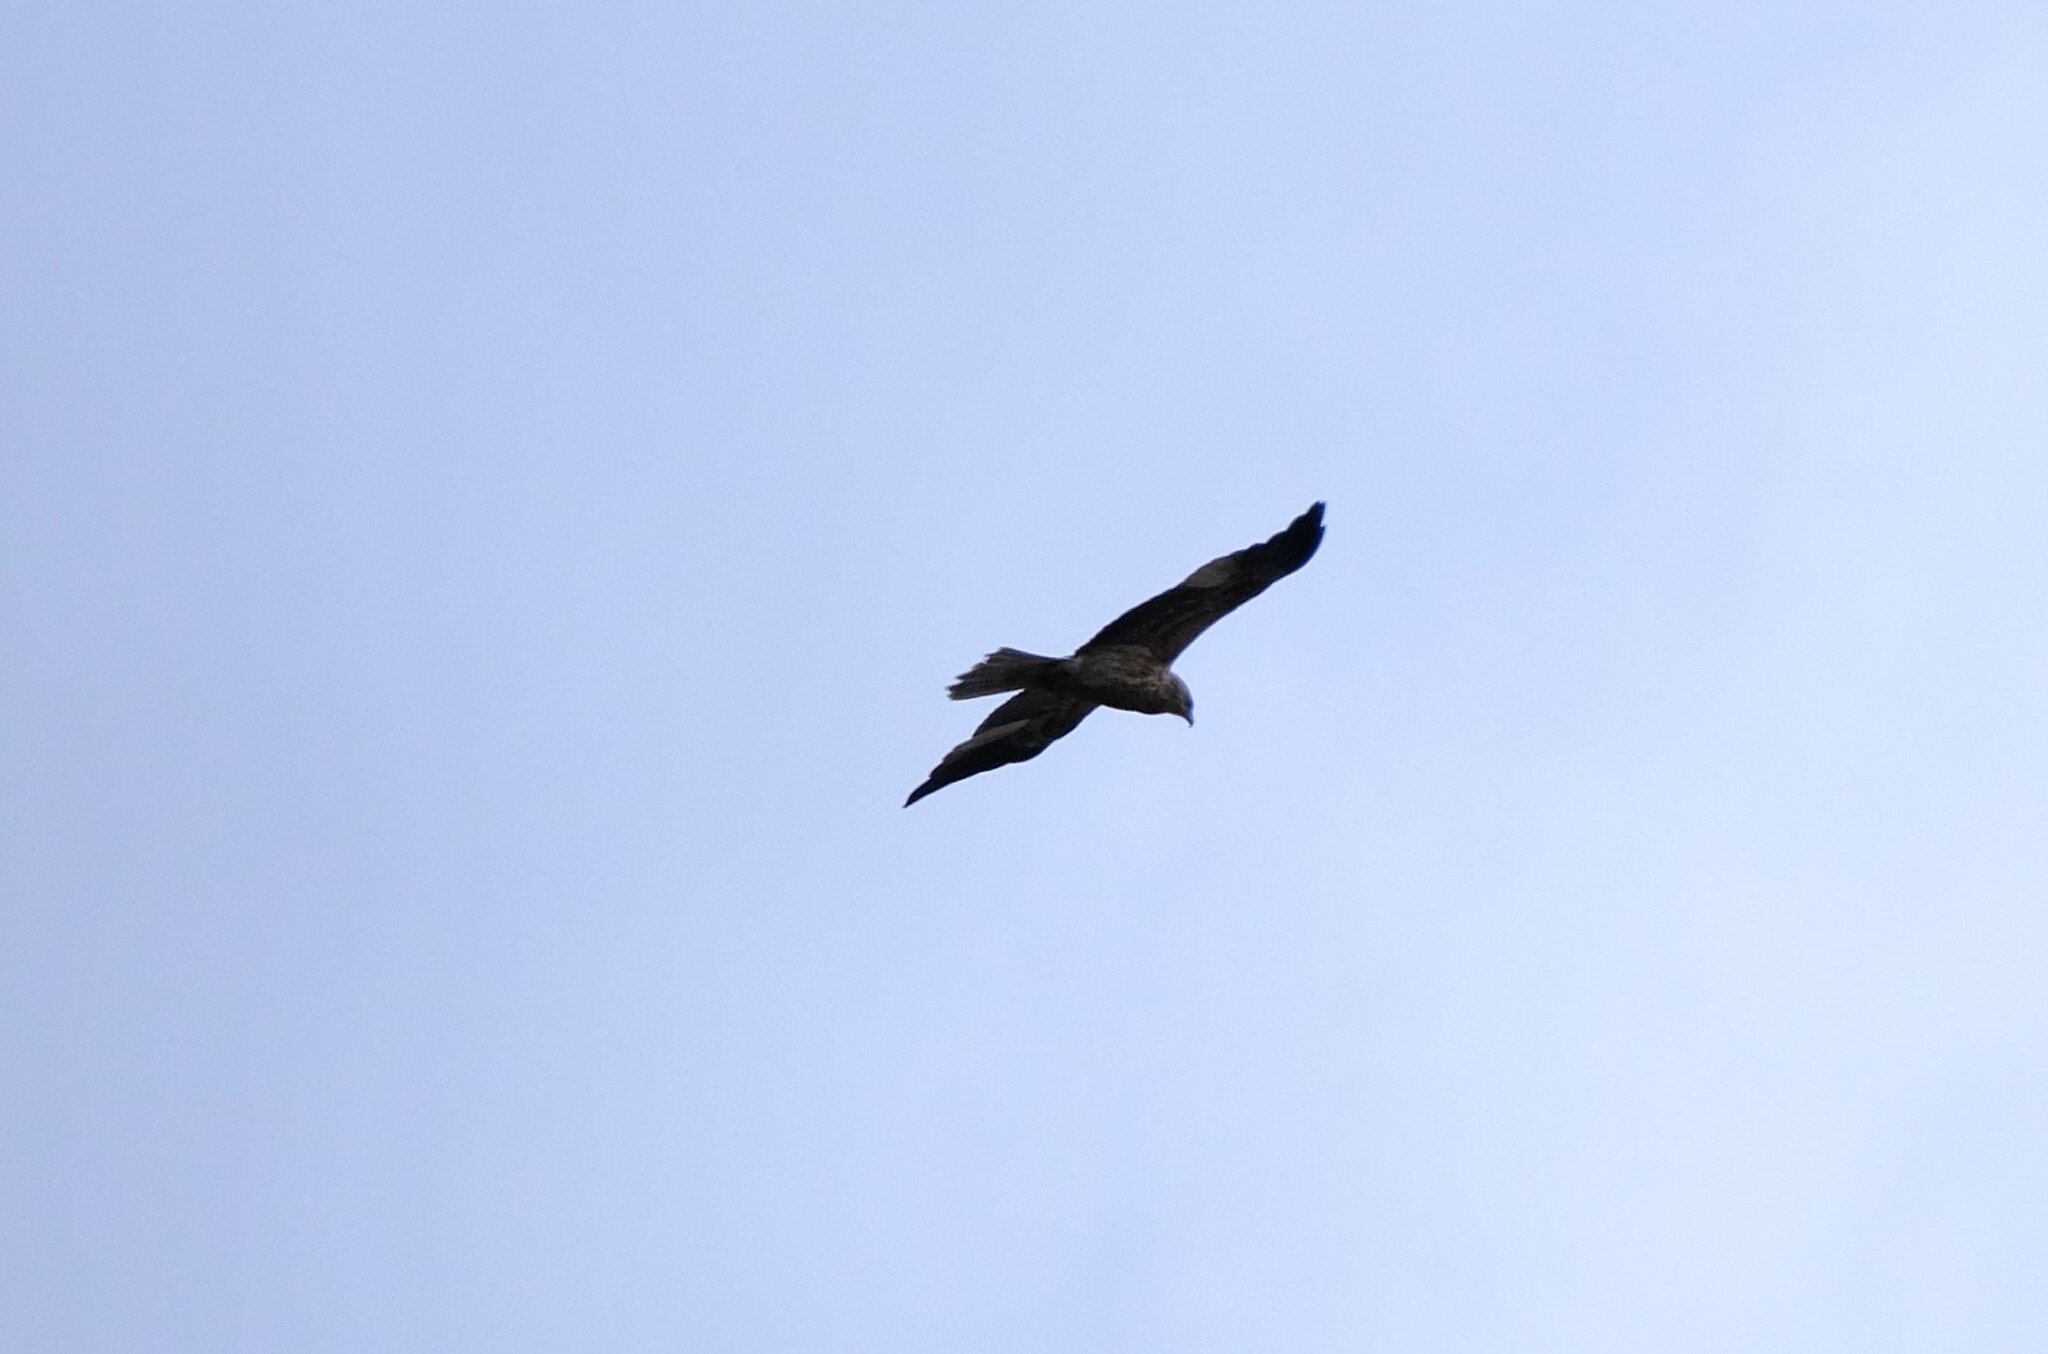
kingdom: Animalia
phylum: Chordata
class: Aves
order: Accipitriformes
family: Accipitridae
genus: Haliastur
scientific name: Haliastur sphenurus
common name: Whistling kite
